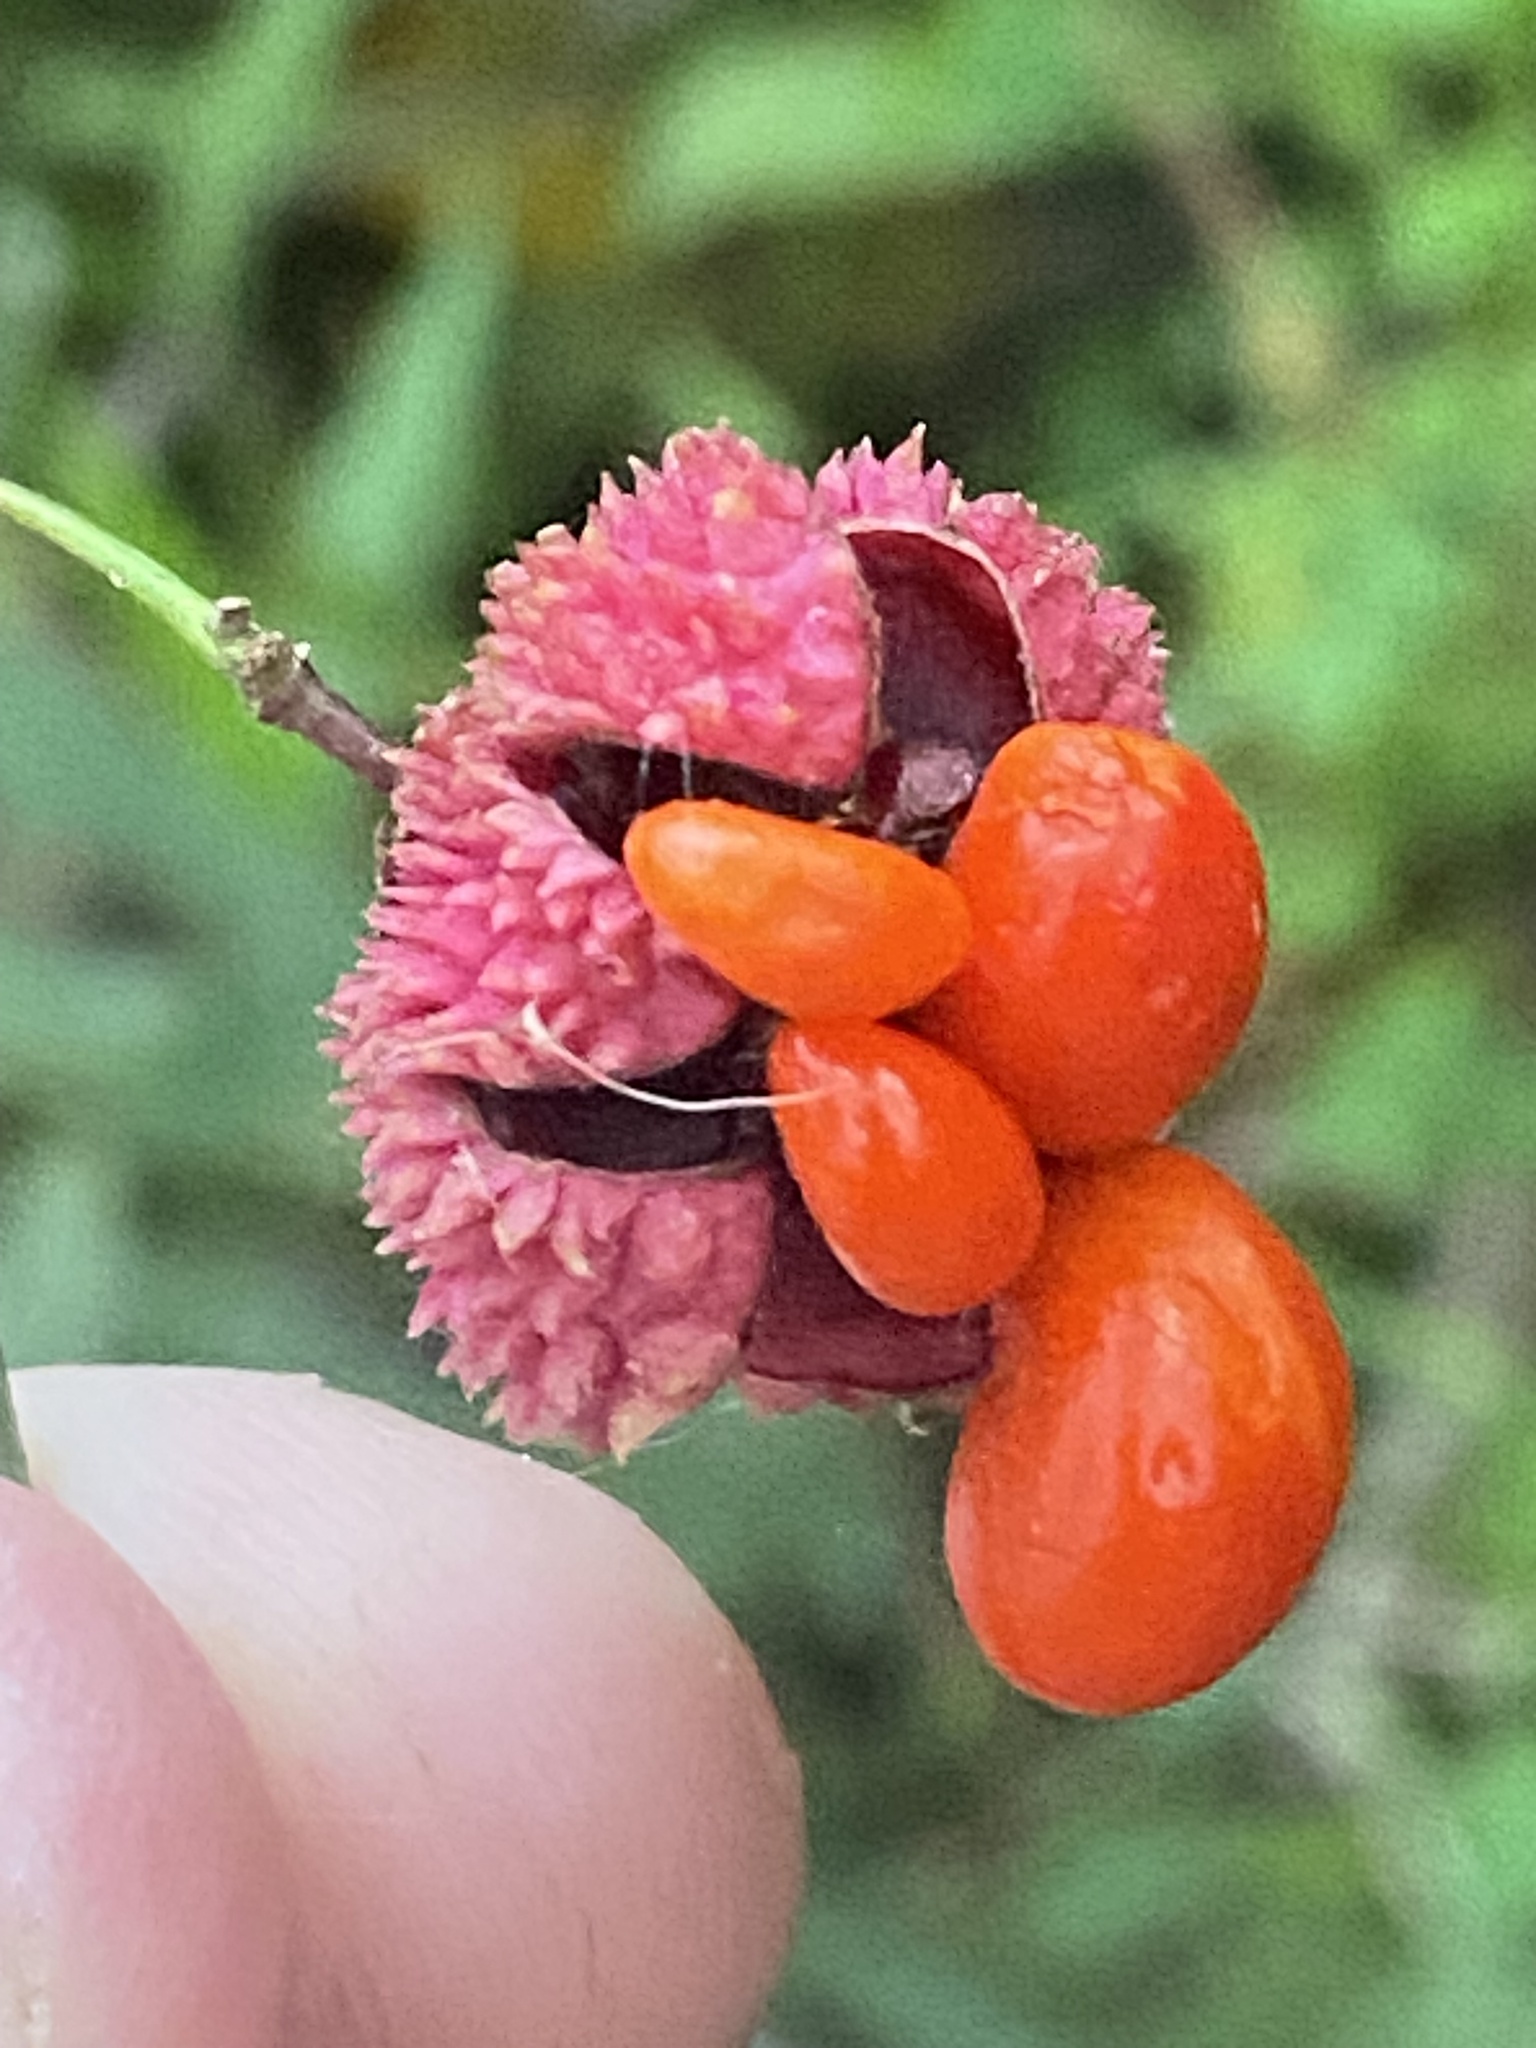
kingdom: Plantae
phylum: Tracheophyta
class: Magnoliopsida
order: Celastrales
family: Celastraceae
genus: Euonymus
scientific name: Euonymus americanus
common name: Bursting-heart
